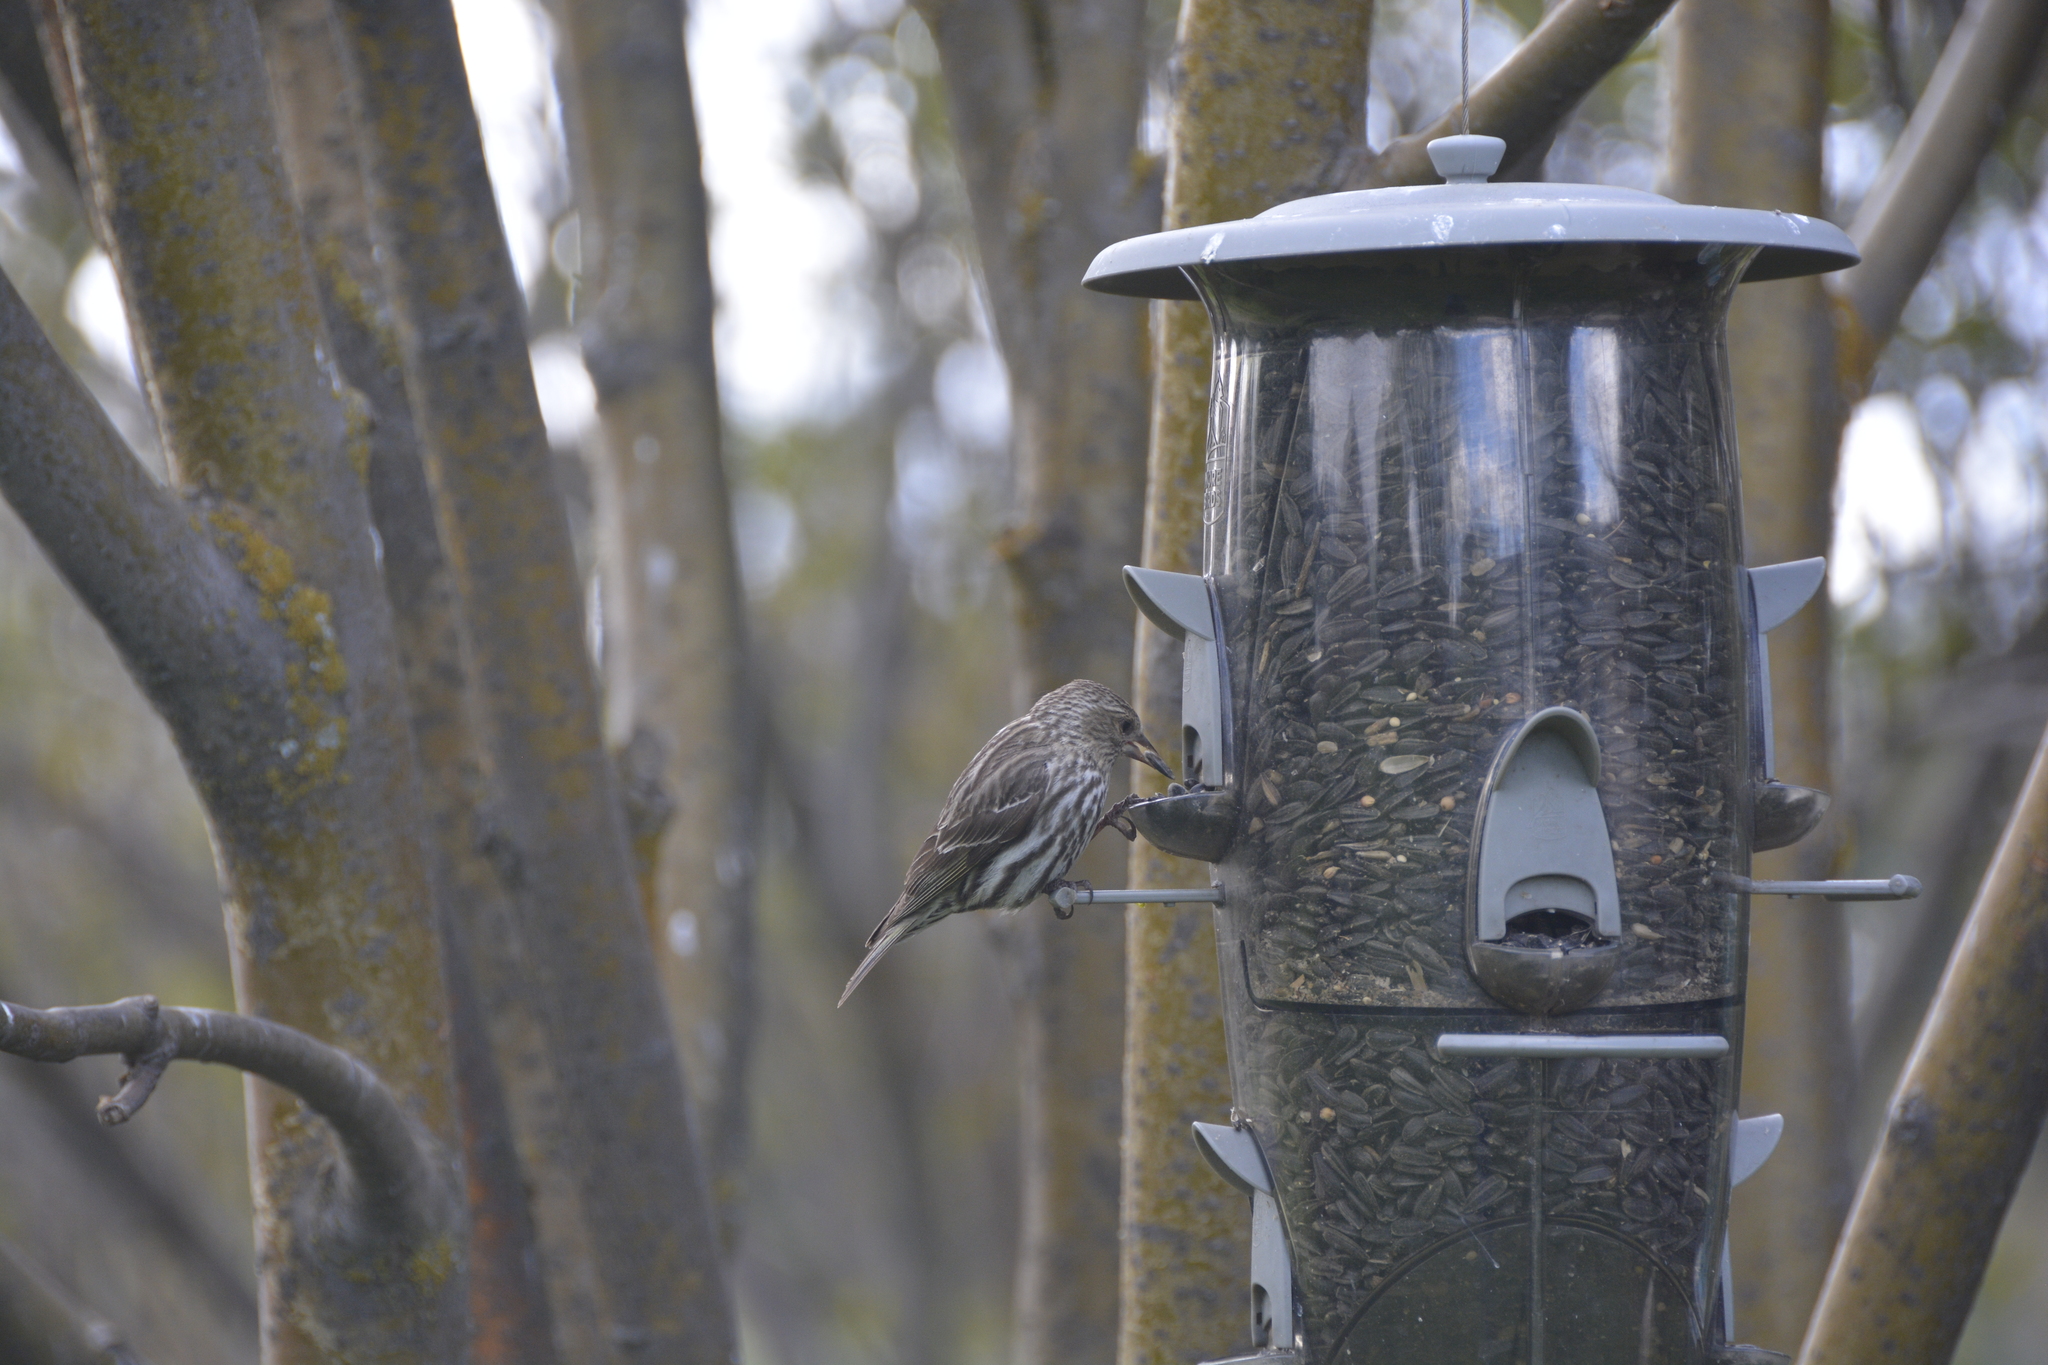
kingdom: Animalia
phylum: Chordata
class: Aves
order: Passeriformes
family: Fringillidae
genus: Spinus
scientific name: Spinus pinus
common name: Pine siskin
